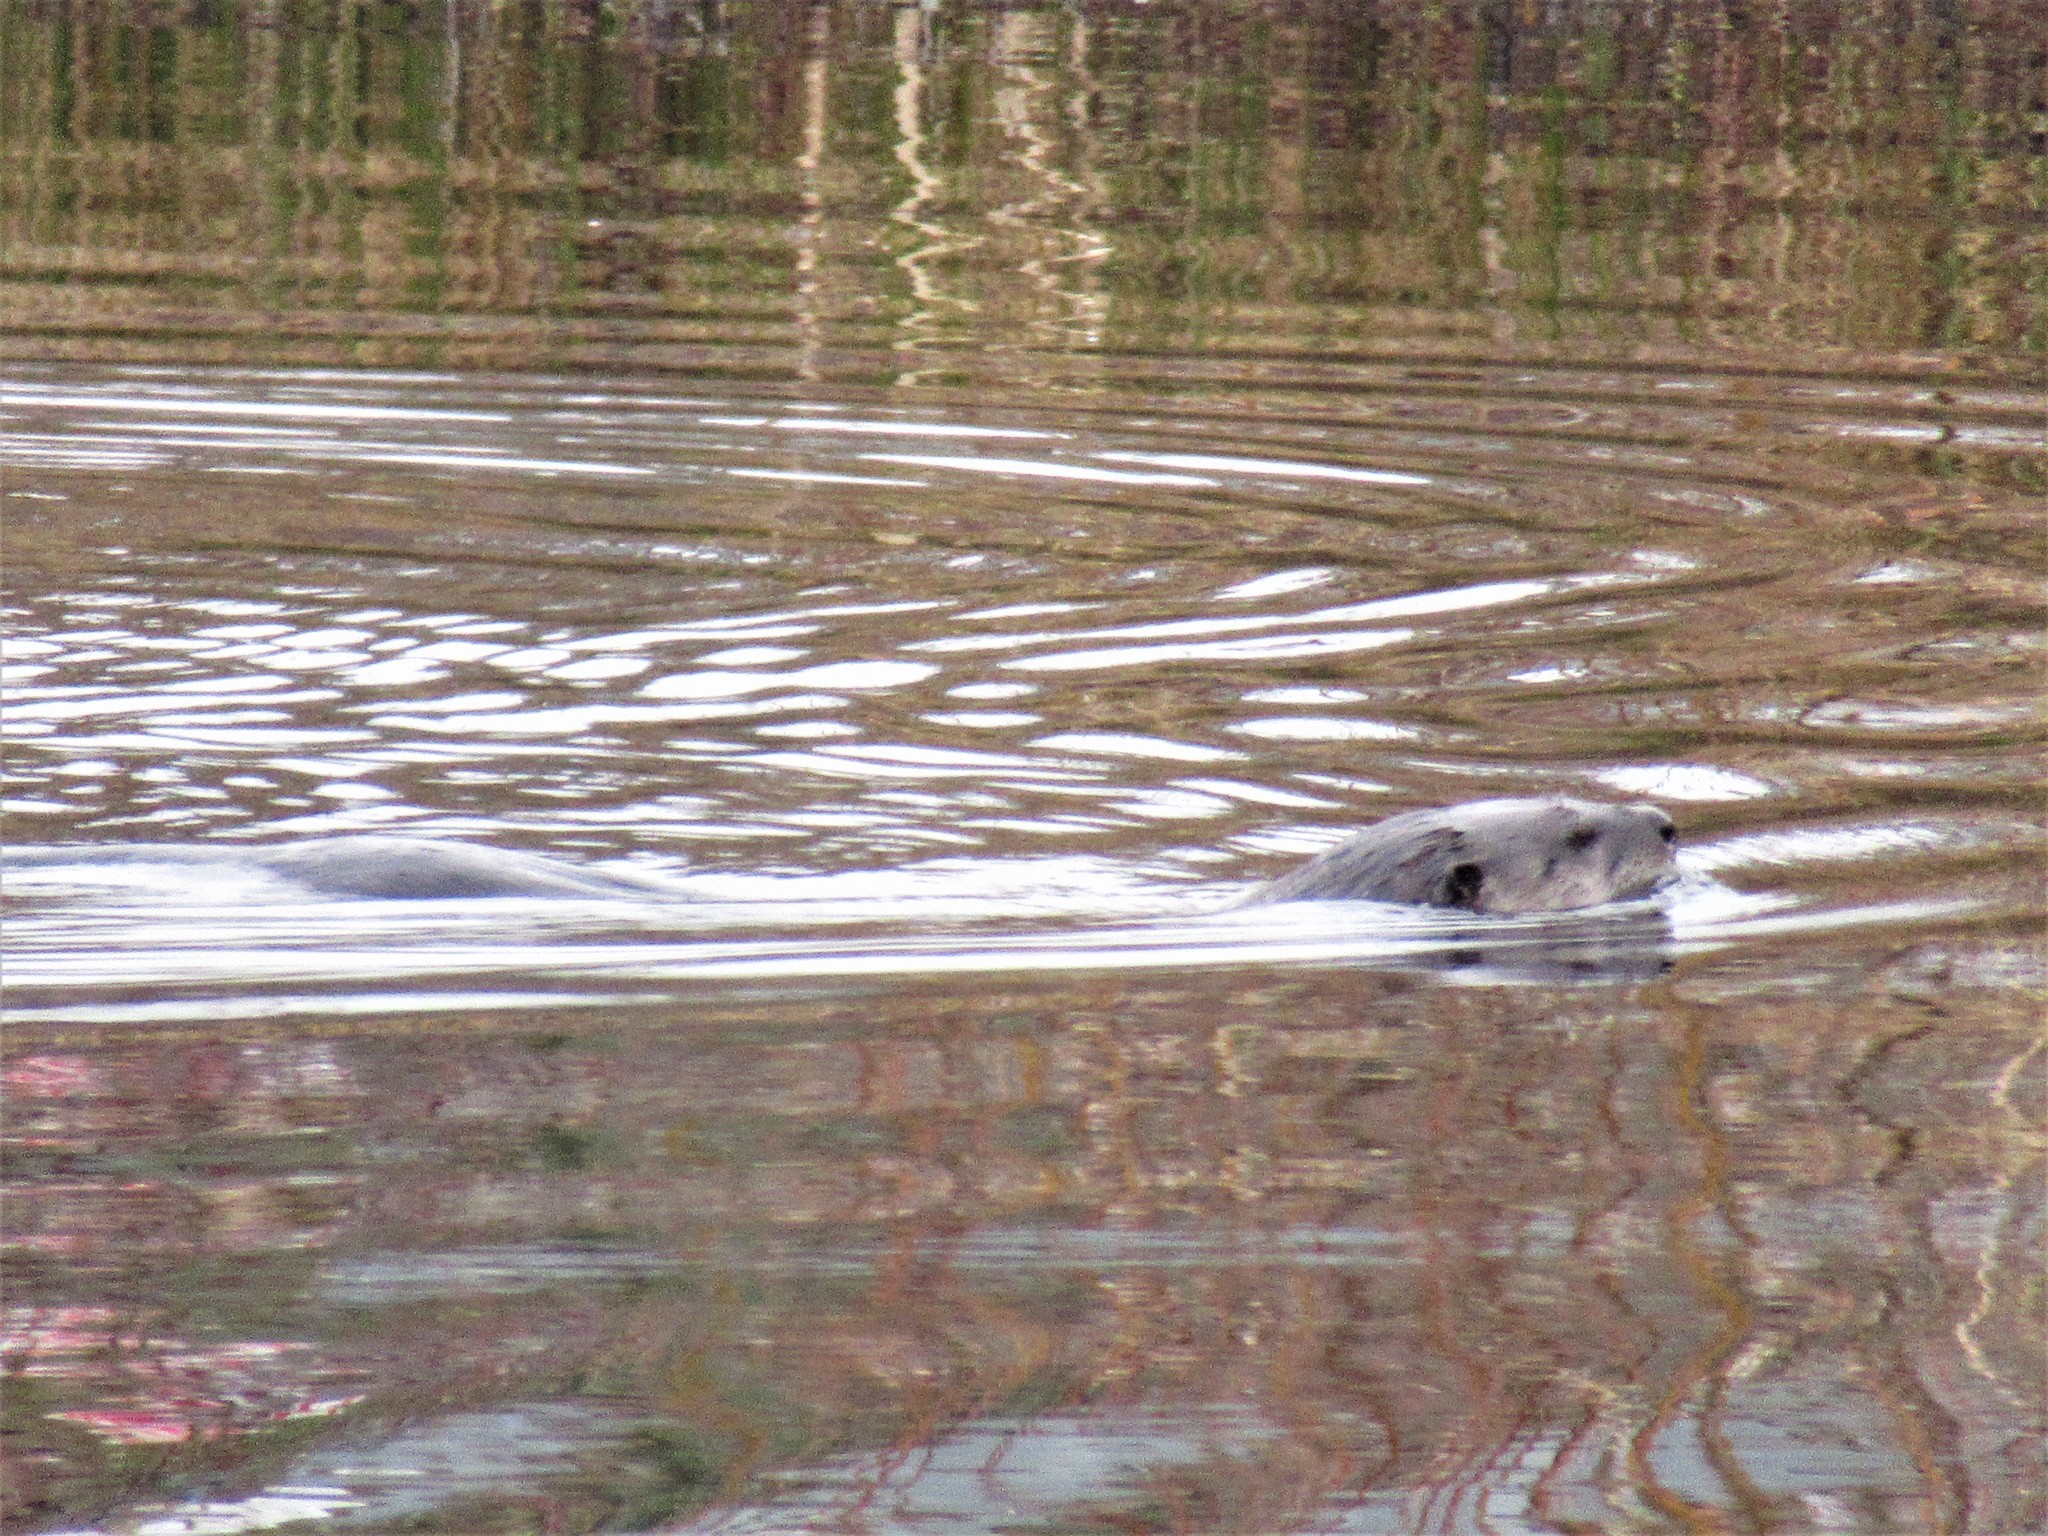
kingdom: Animalia
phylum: Chordata
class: Mammalia
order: Carnivora
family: Mustelidae
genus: Lontra
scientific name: Lontra canadensis
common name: North american river otter
